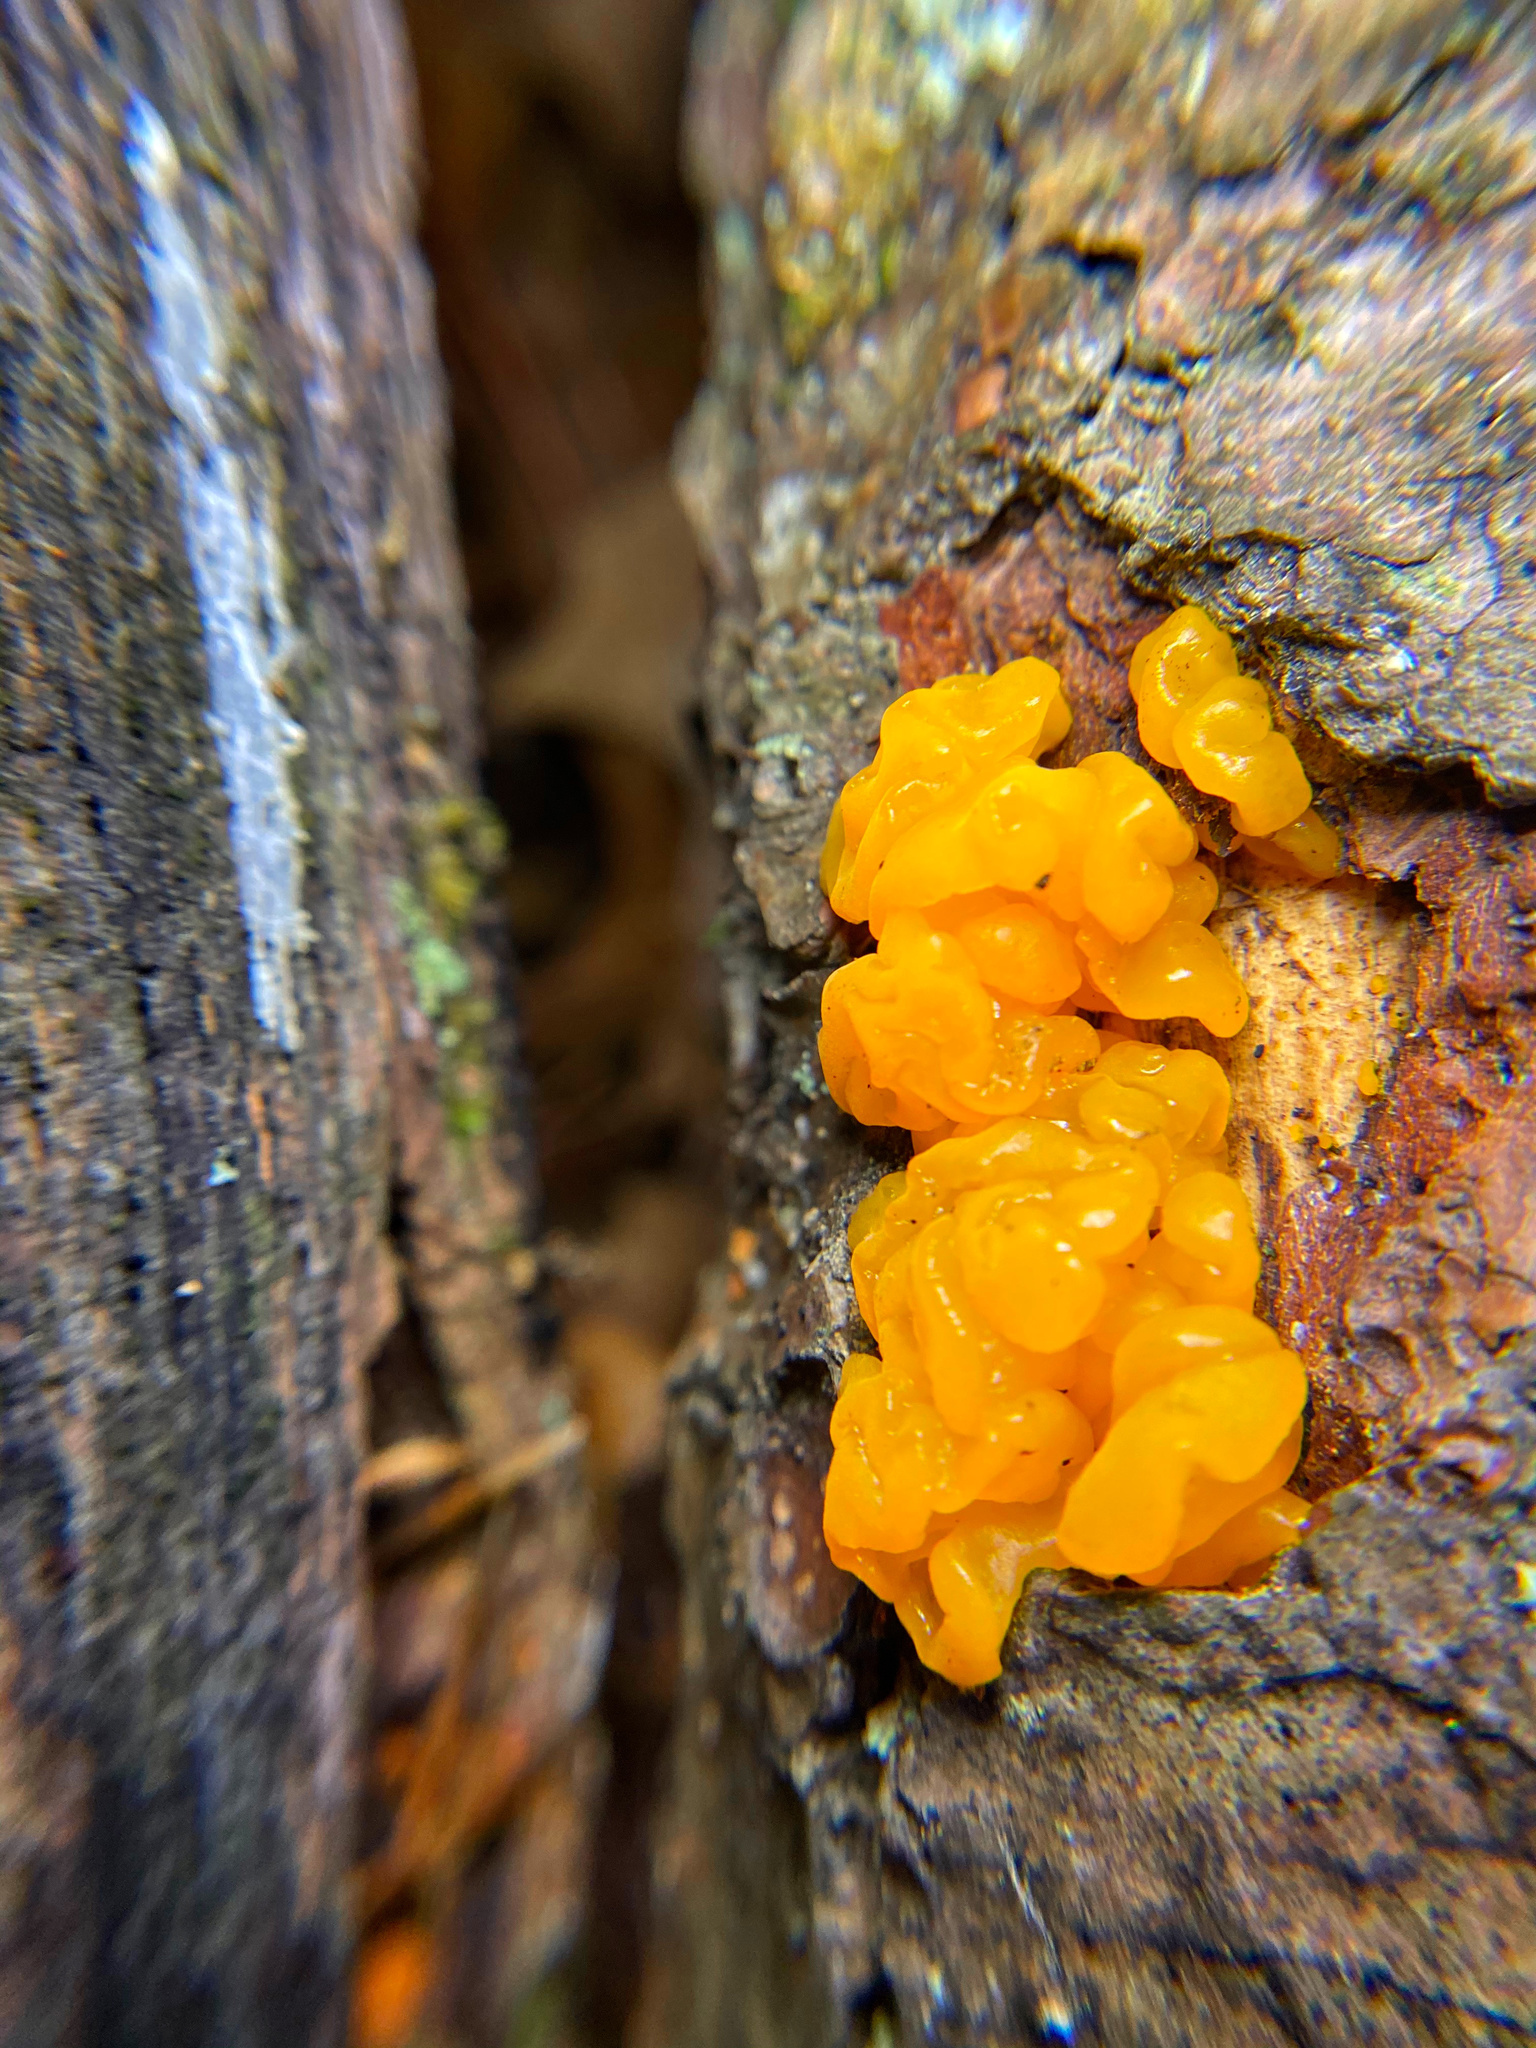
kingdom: Fungi
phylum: Basidiomycota
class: Dacrymycetes
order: Dacrymycetales
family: Dacrymycetaceae
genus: Dacrymyces
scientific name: Dacrymyces chrysospermus
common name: Orange jelly spot
